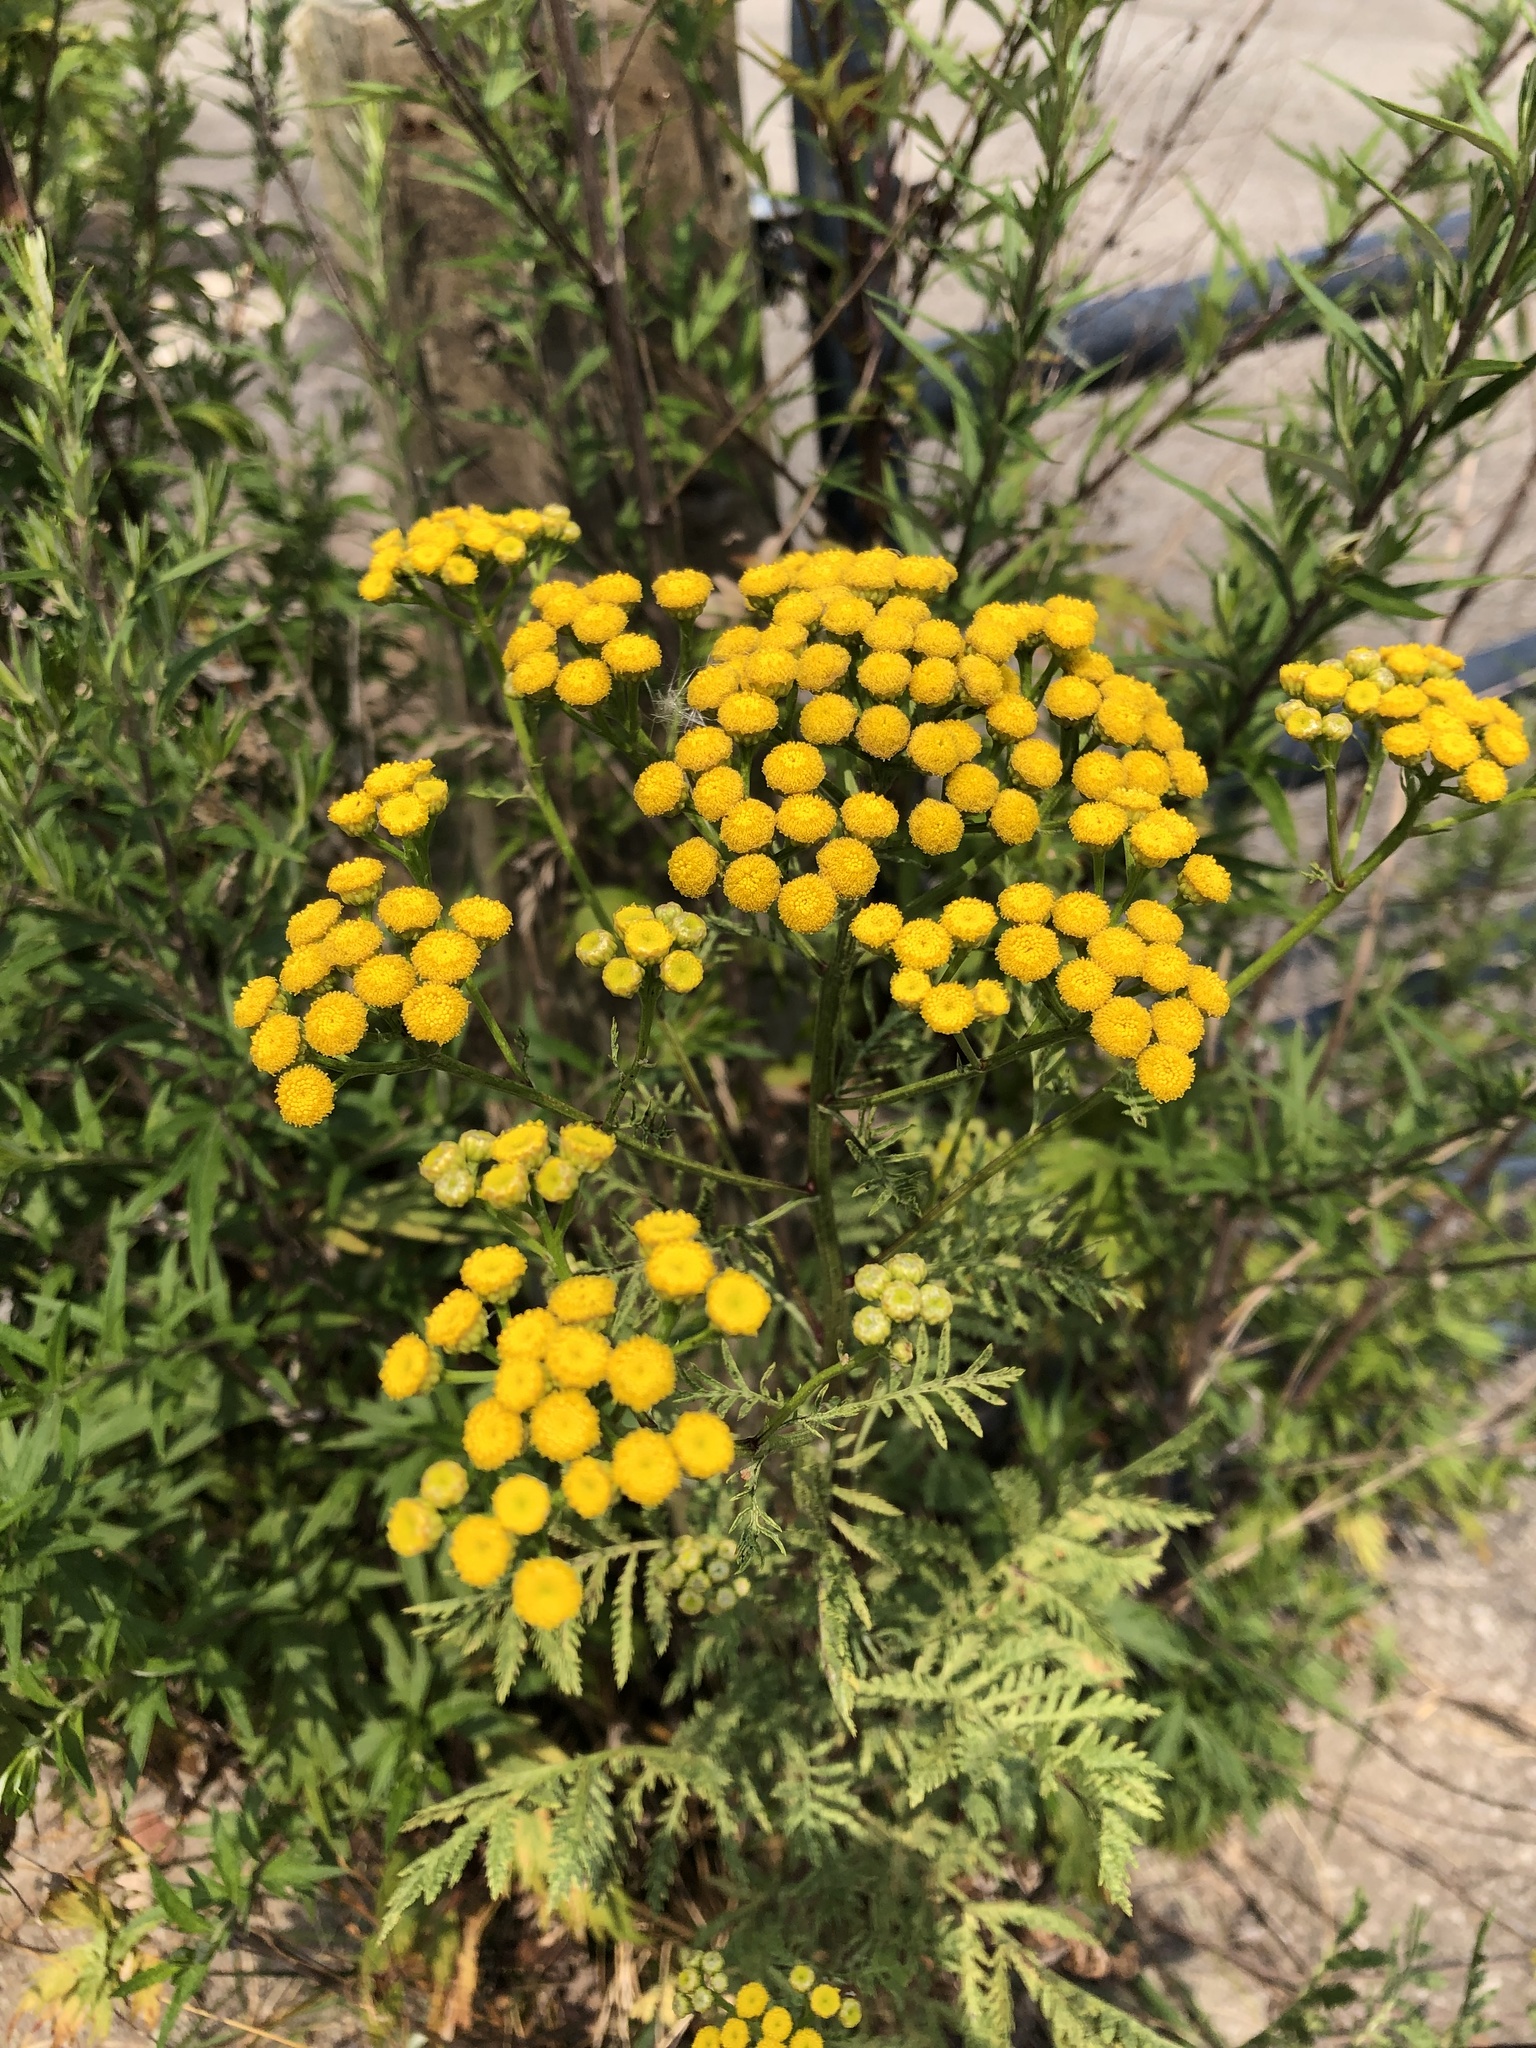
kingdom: Plantae
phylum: Tracheophyta
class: Magnoliopsida
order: Asterales
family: Asteraceae
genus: Tanacetum
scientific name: Tanacetum vulgare
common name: Common tansy
